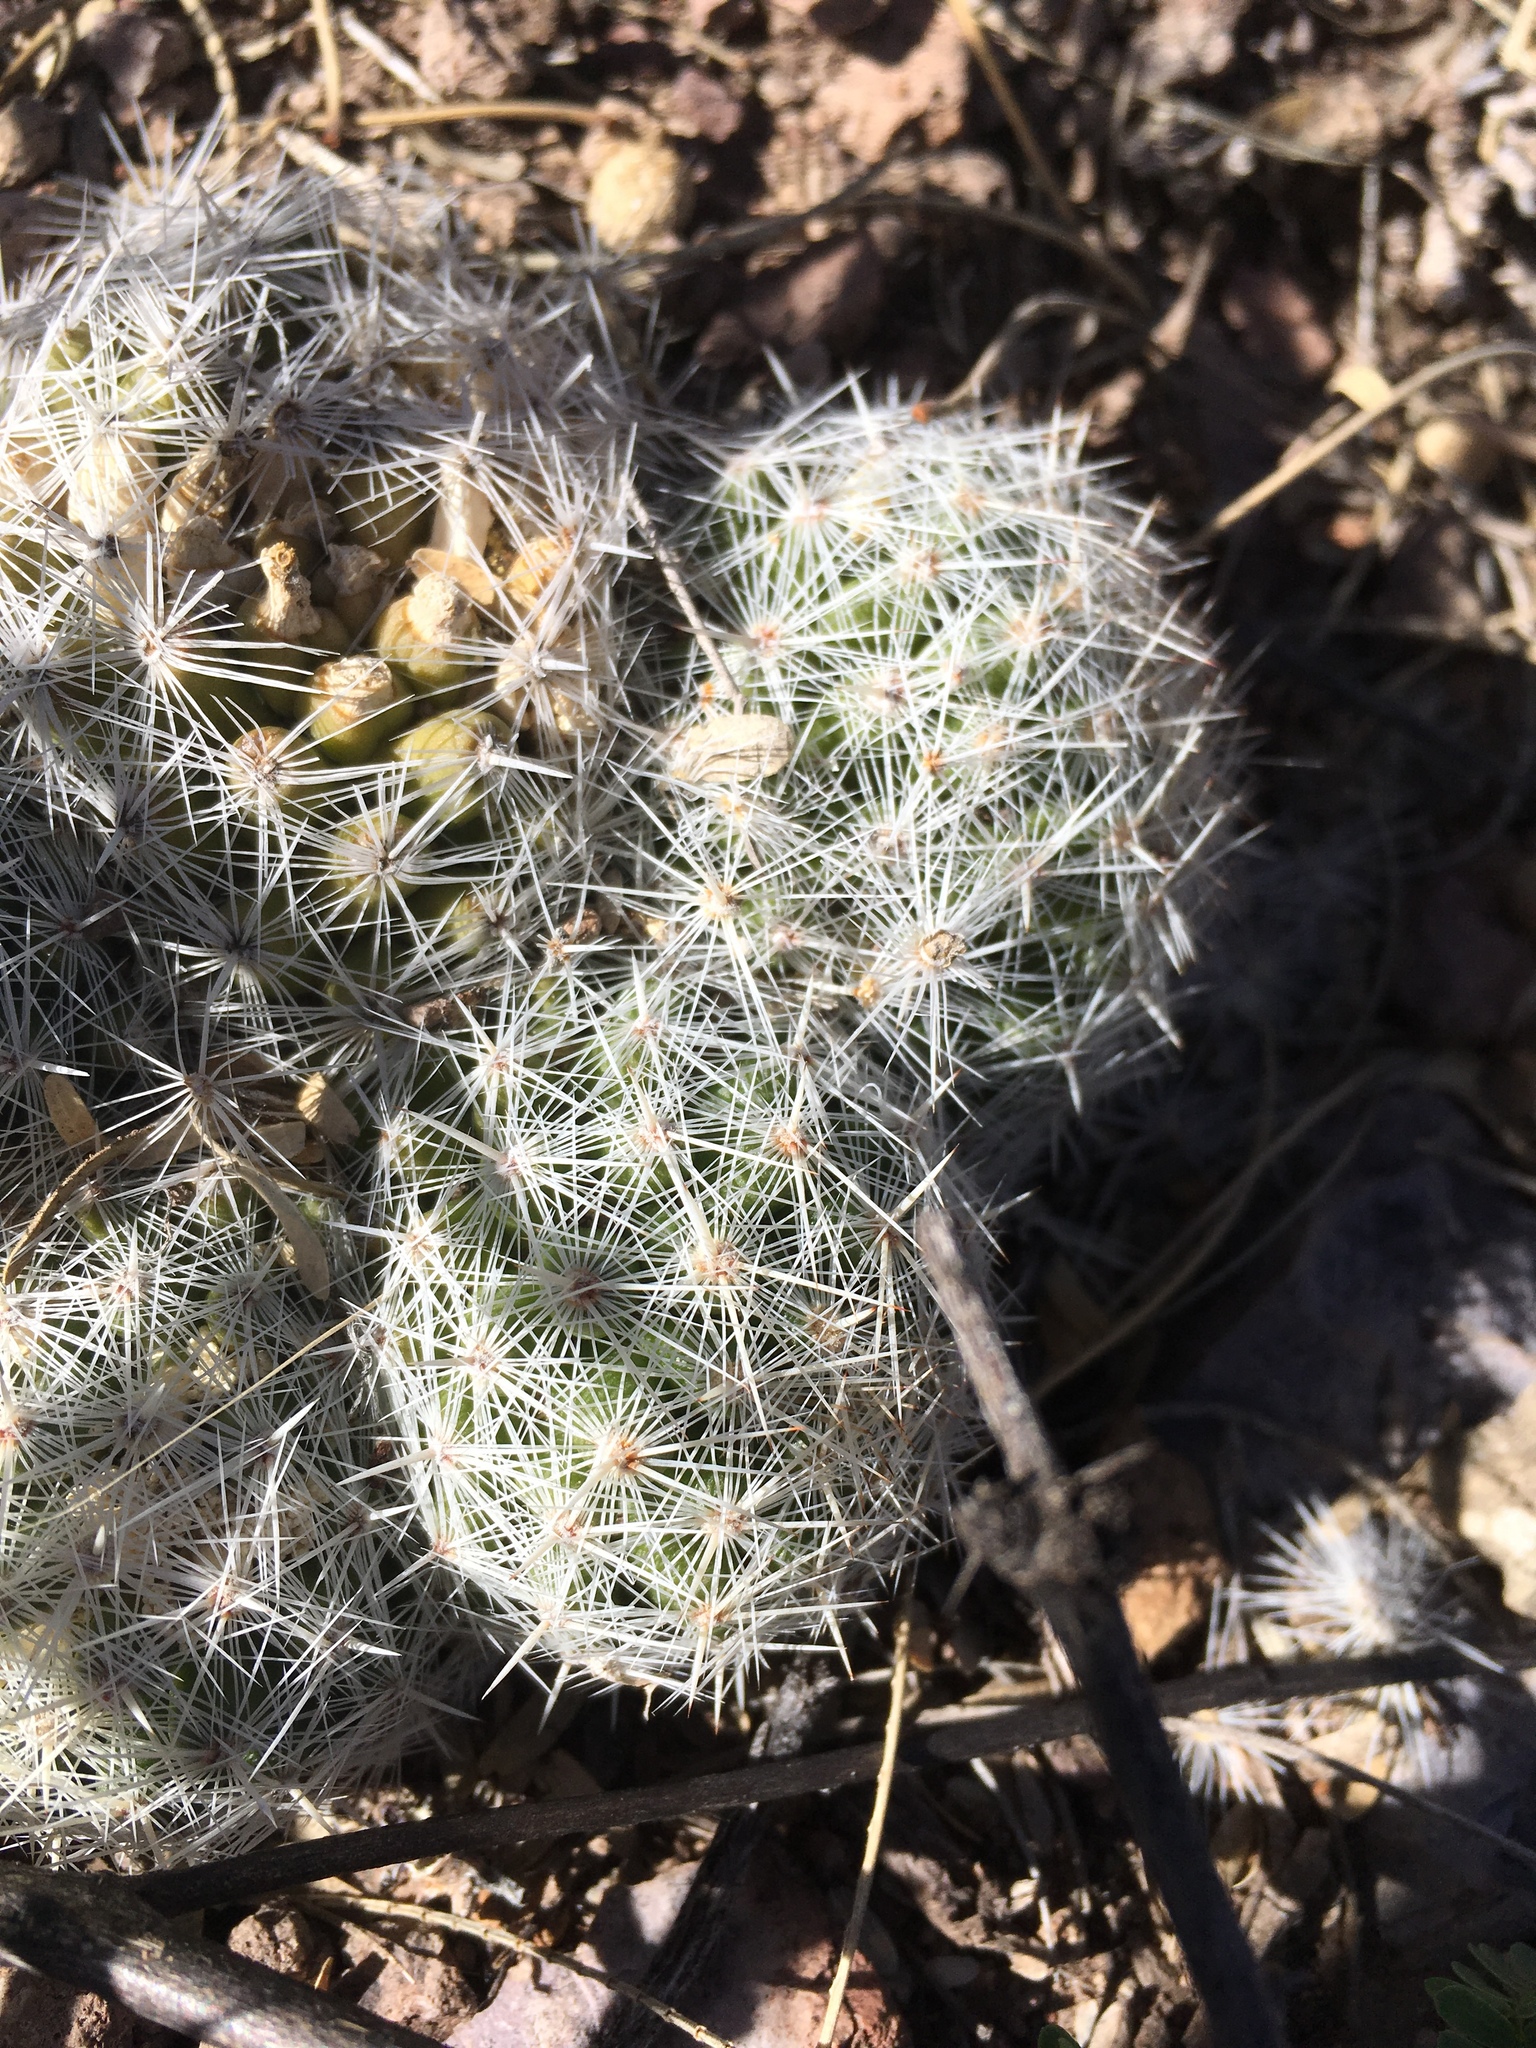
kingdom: Plantae
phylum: Tracheophyta
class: Magnoliopsida
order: Caryophyllales
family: Cactaceae
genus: Pelecyphora
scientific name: Pelecyphora vivipara
